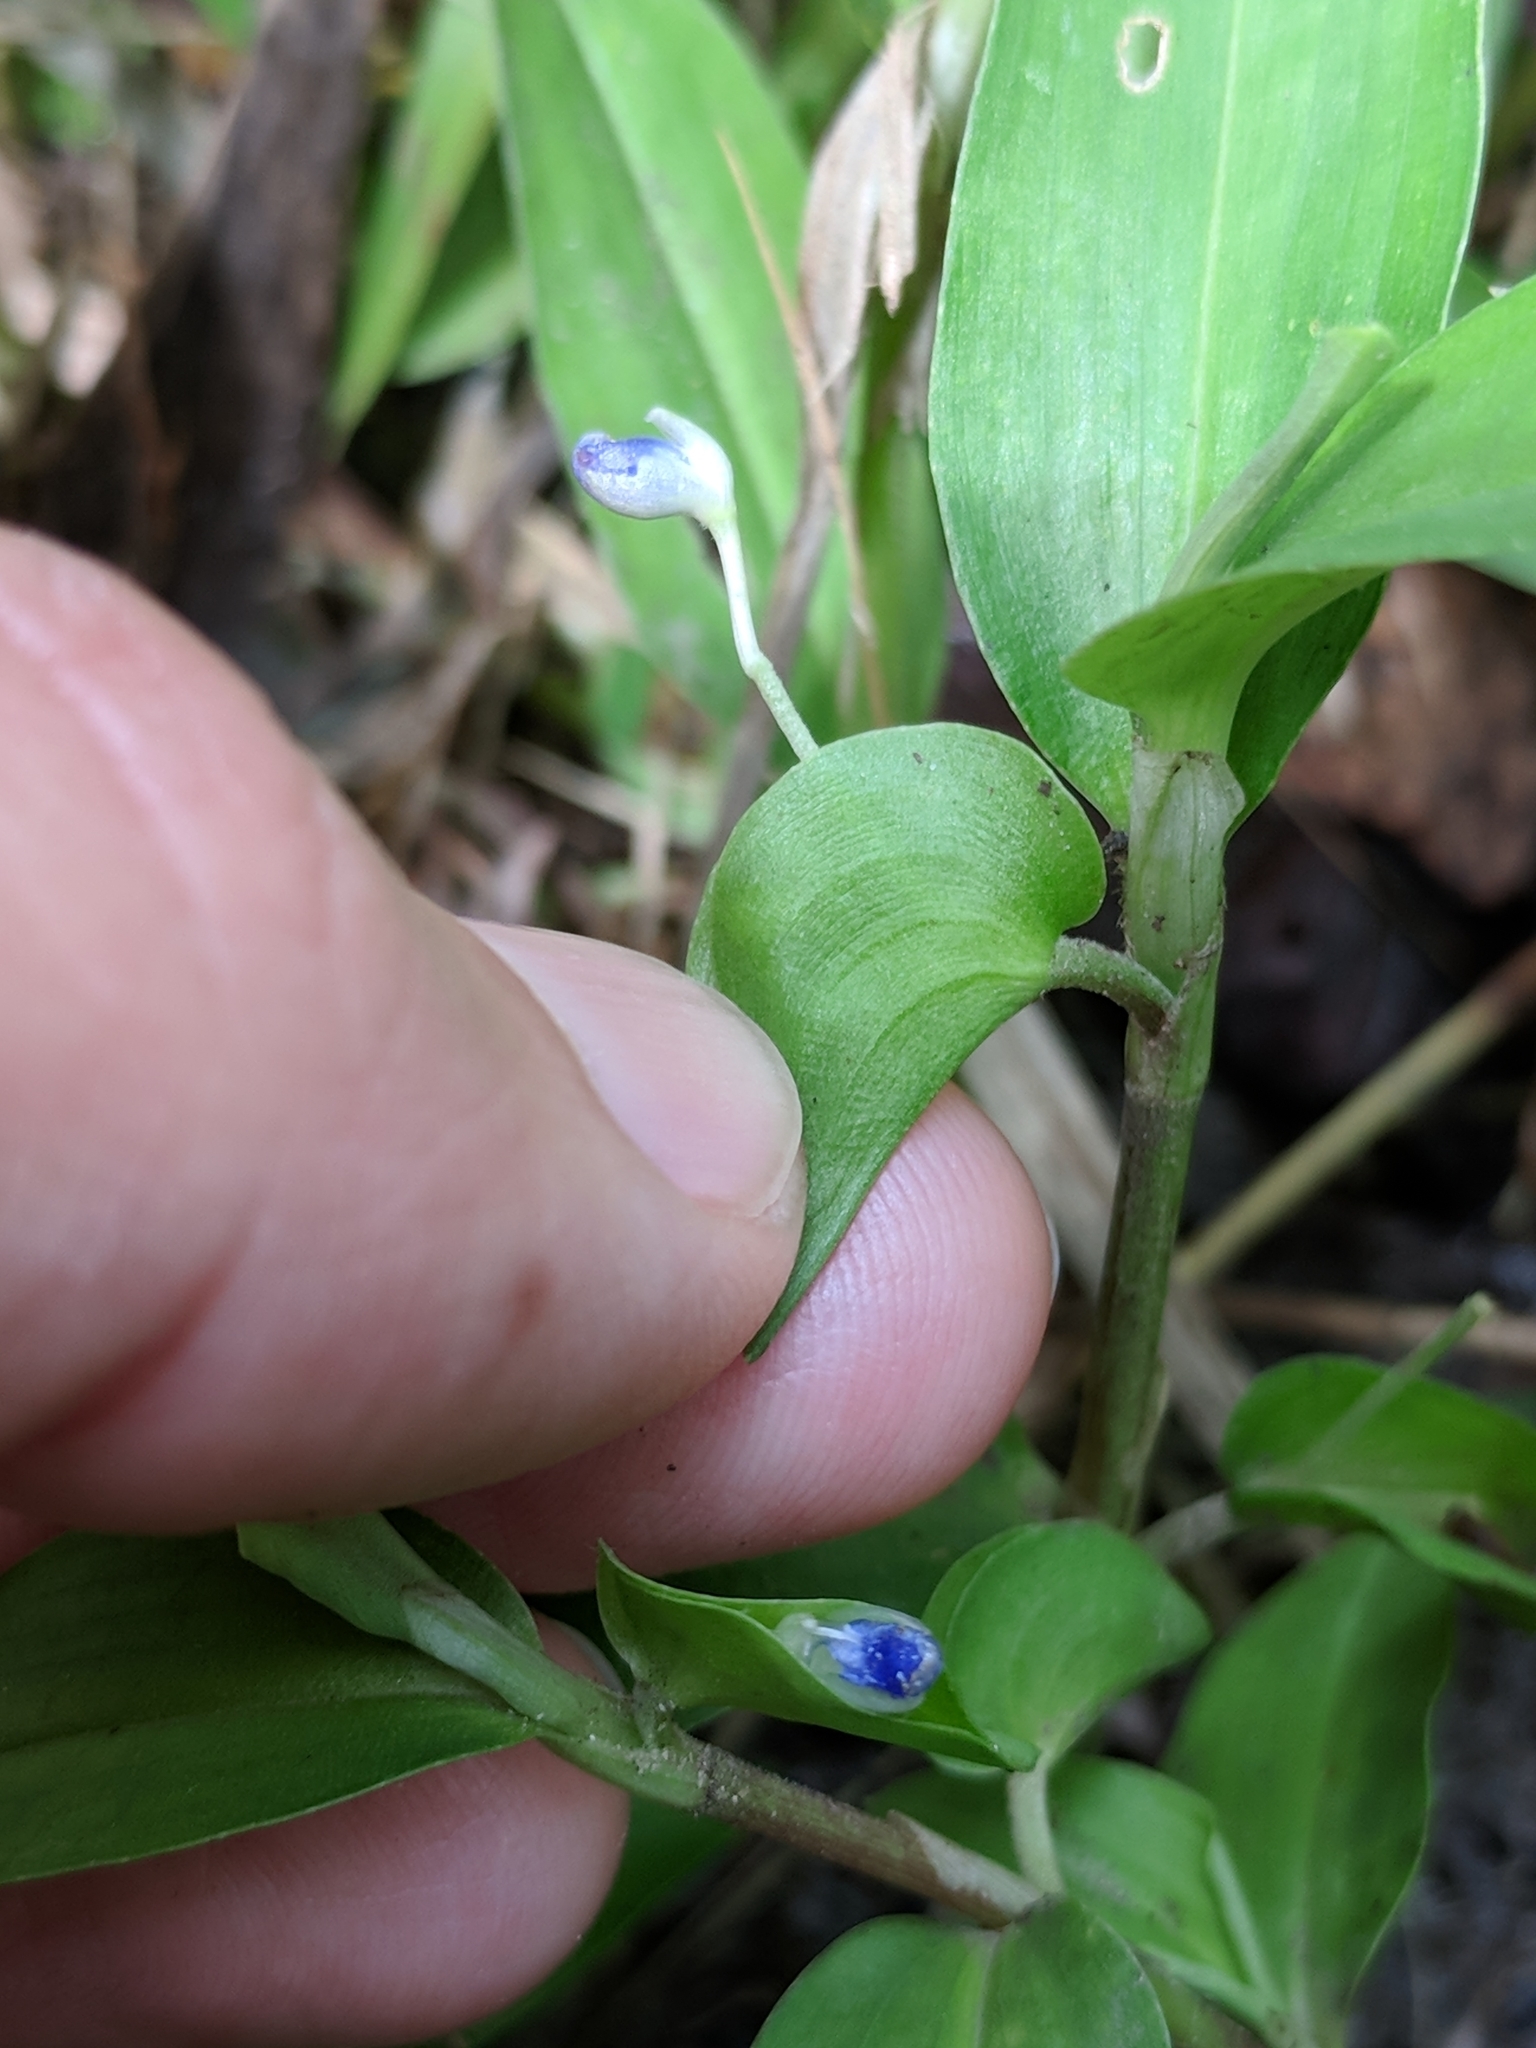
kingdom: Plantae
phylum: Tracheophyta
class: Liliopsida
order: Commelinales
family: Commelinaceae
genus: Commelina
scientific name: Commelina diffusa
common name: Climbing dayflower
